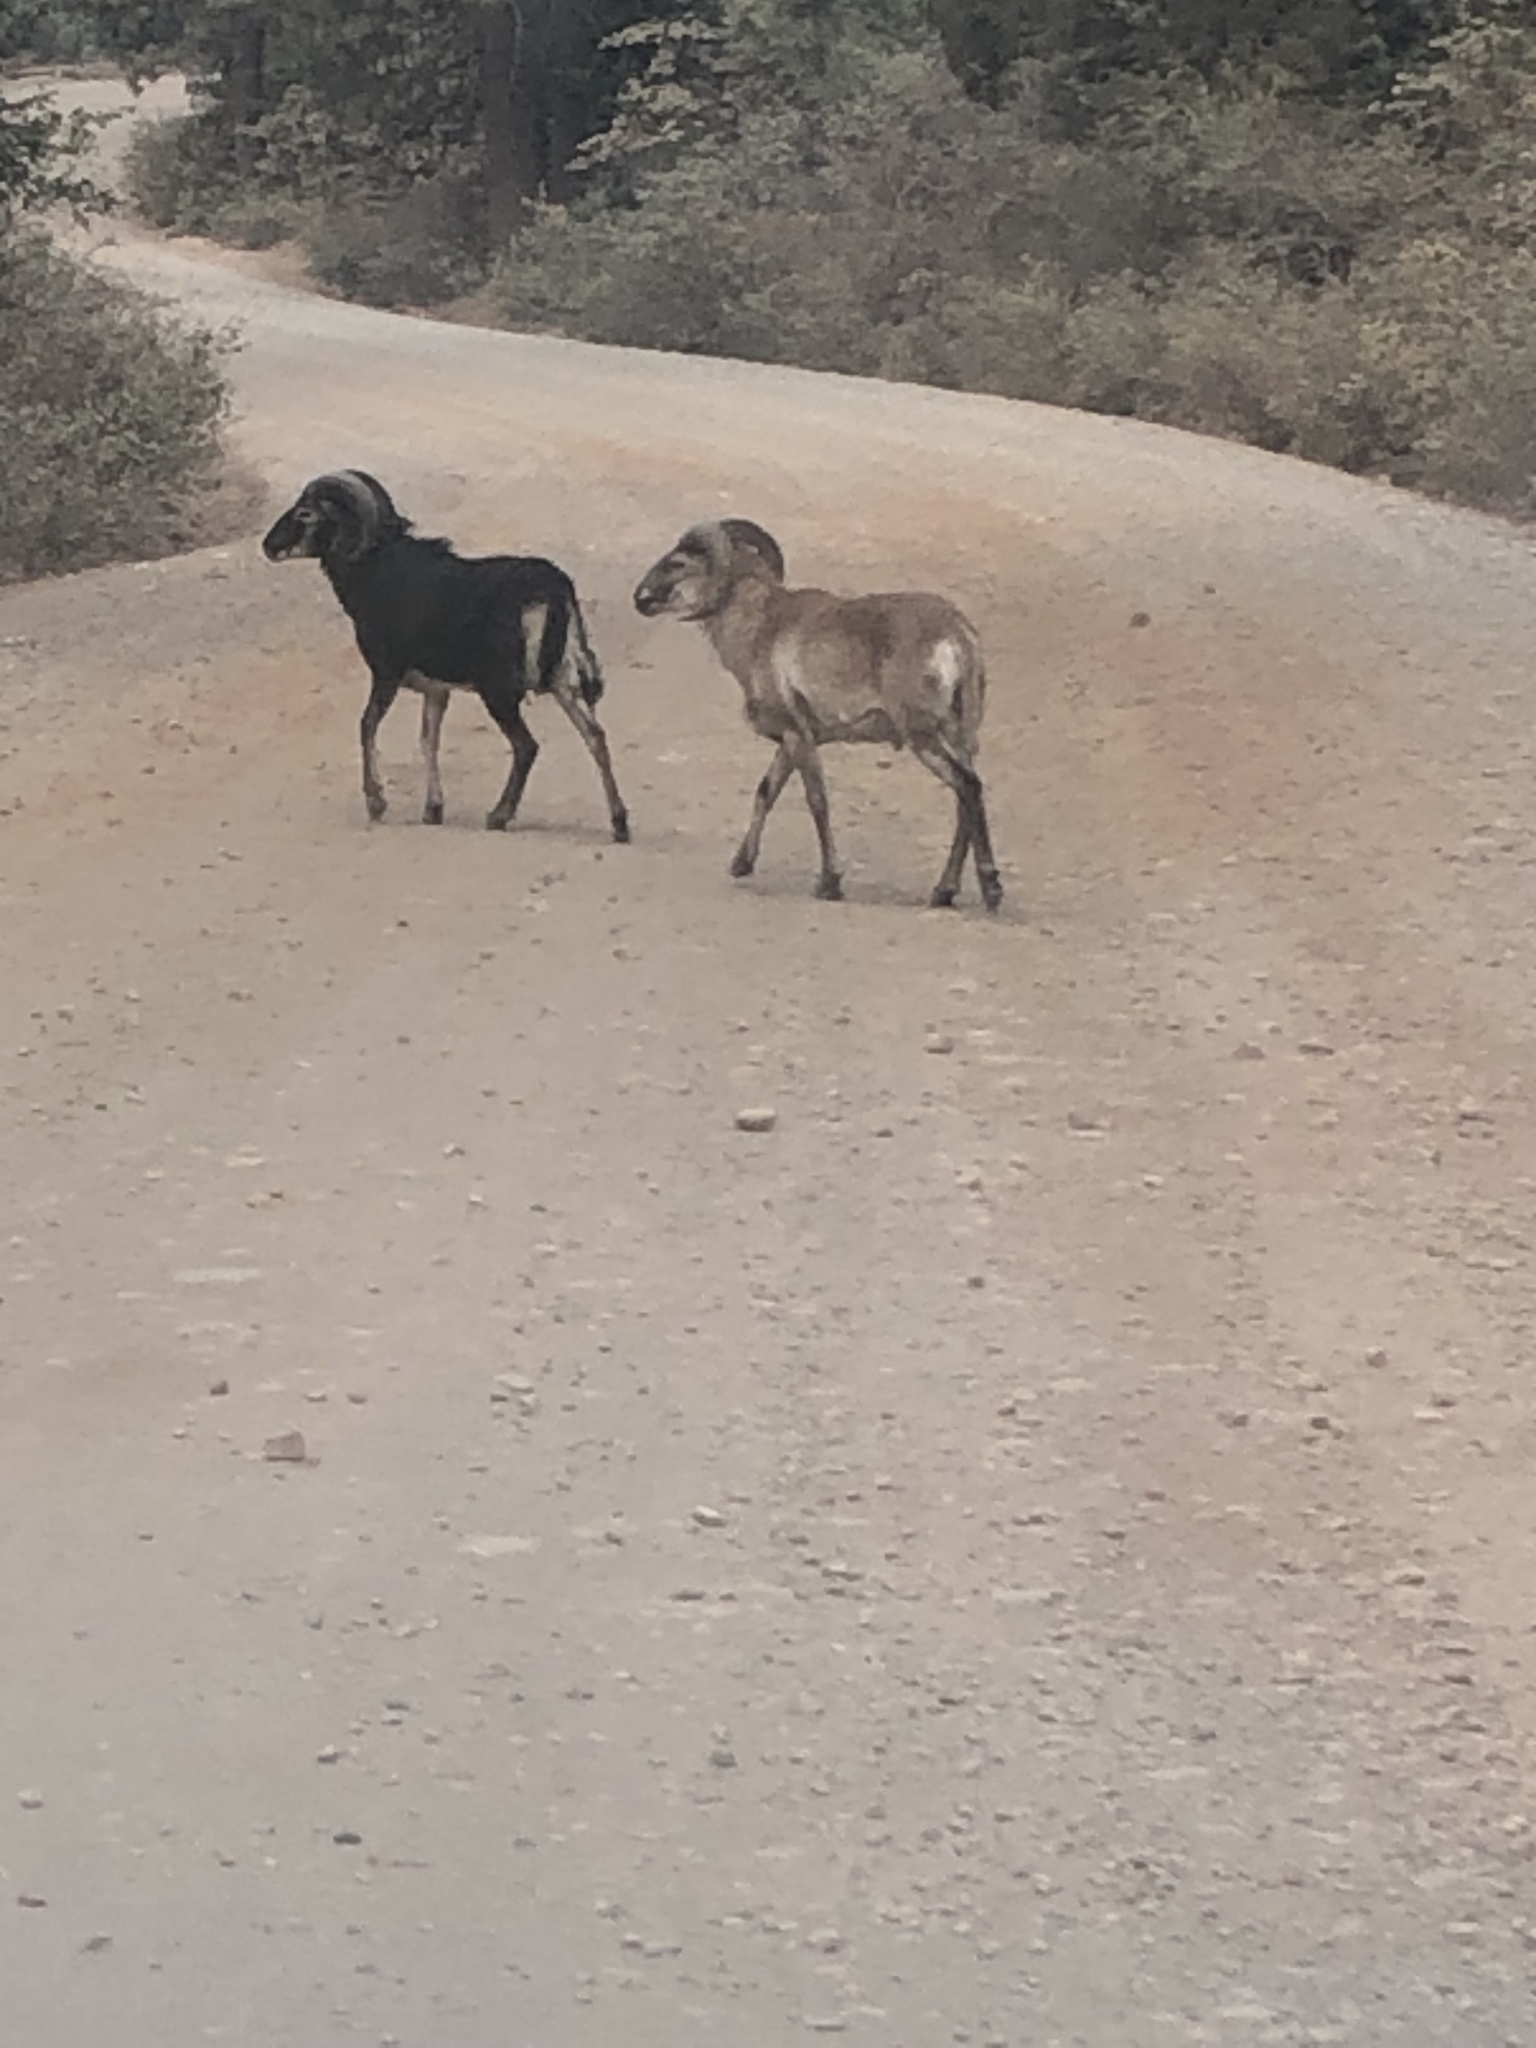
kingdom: Animalia
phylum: Chordata
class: Mammalia
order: Artiodactyla
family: Bovidae
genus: Ovis
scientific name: Ovis aries
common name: Domestic sheep
